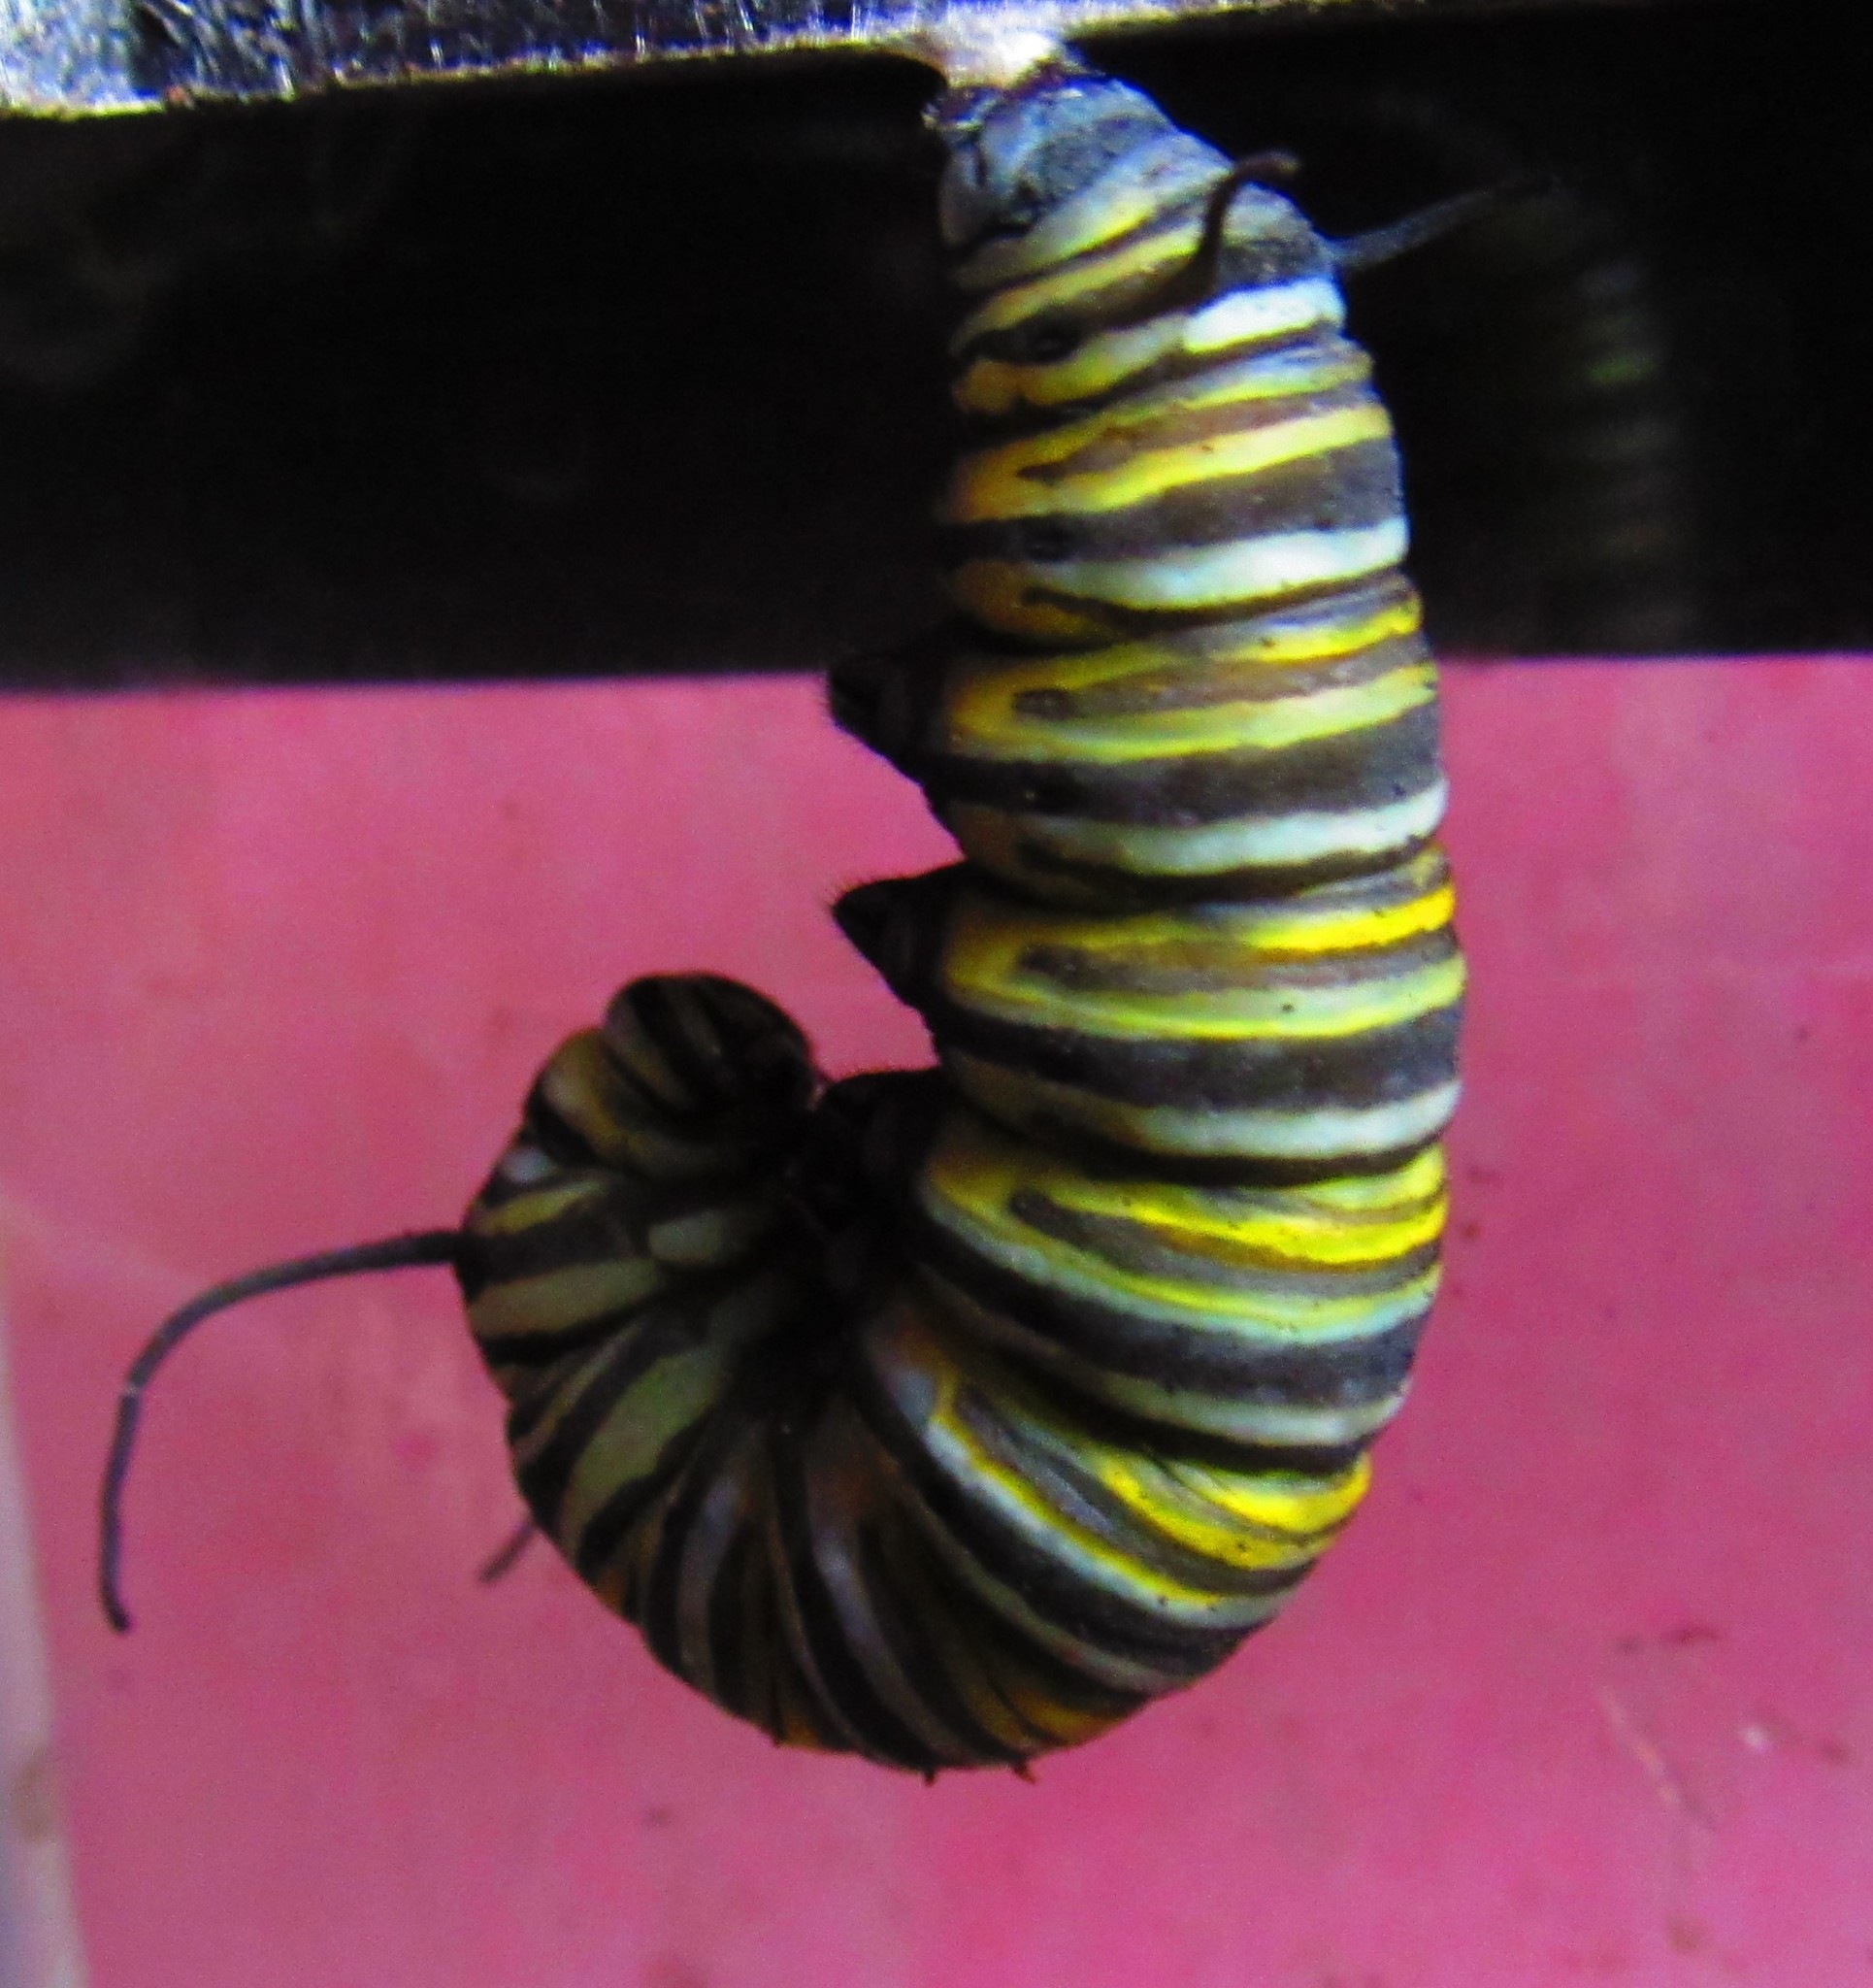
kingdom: Animalia
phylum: Arthropoda
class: Insecta
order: Lepidoptera
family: Nymphalidae
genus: Danaus
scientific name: Danaus plexippus
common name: Monarch
